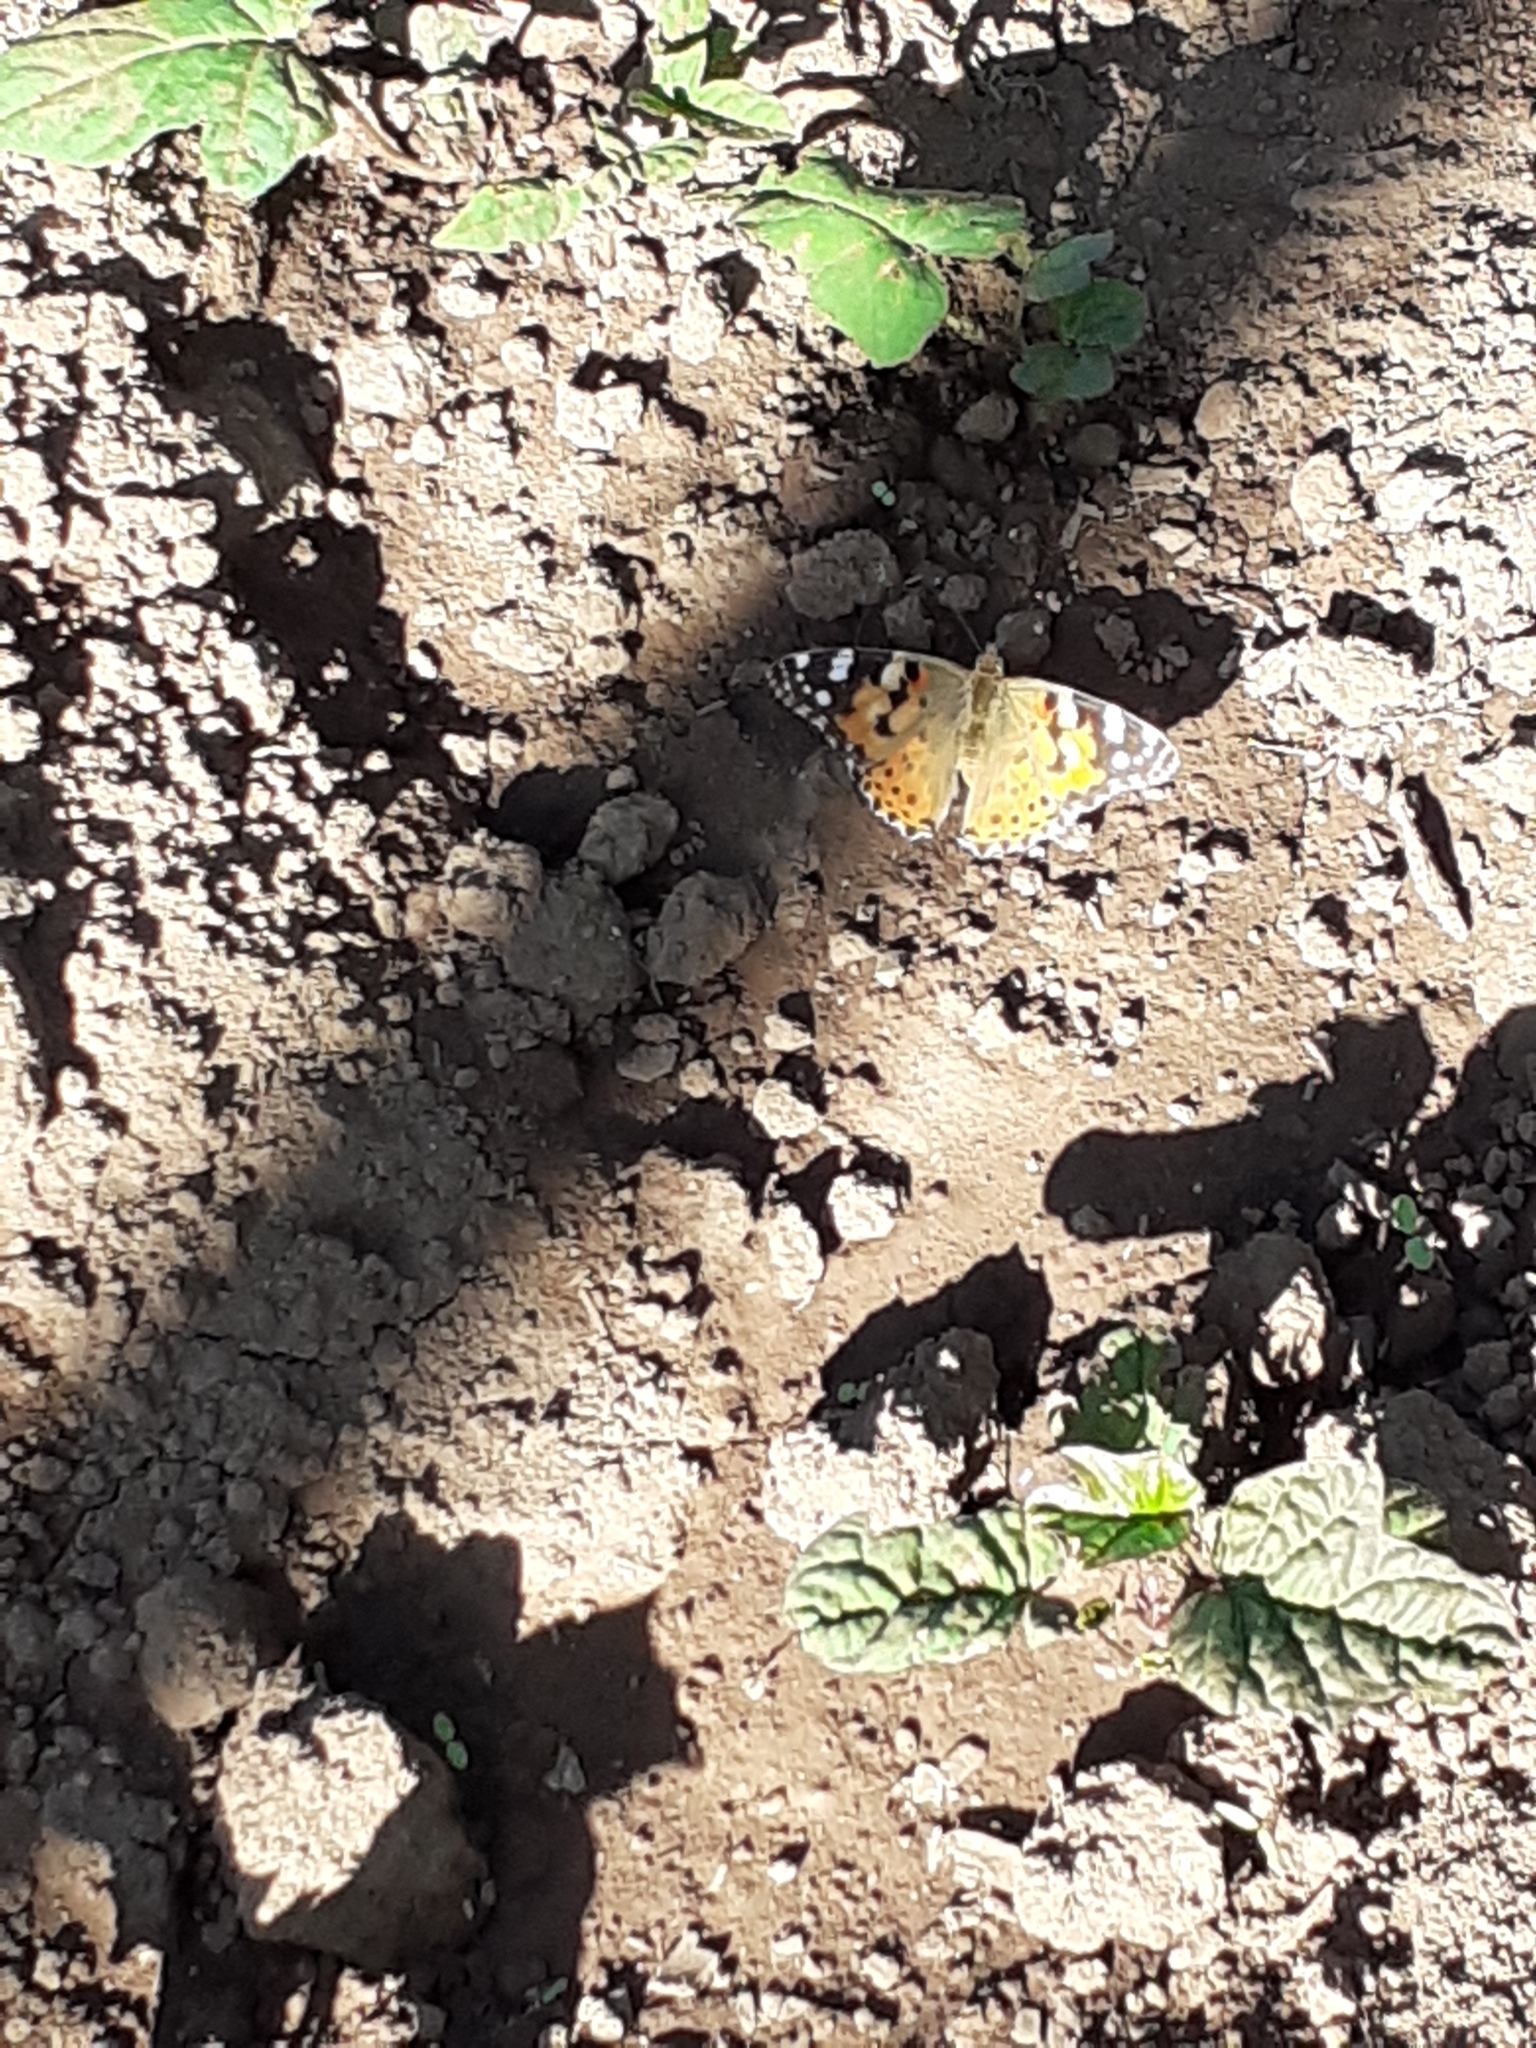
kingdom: Animalia
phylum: Arthropoda
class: Insecta
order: Lepidoptera
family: Nymphalidae
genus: Vanessa
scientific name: Vanessa cardui
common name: Painted lady
